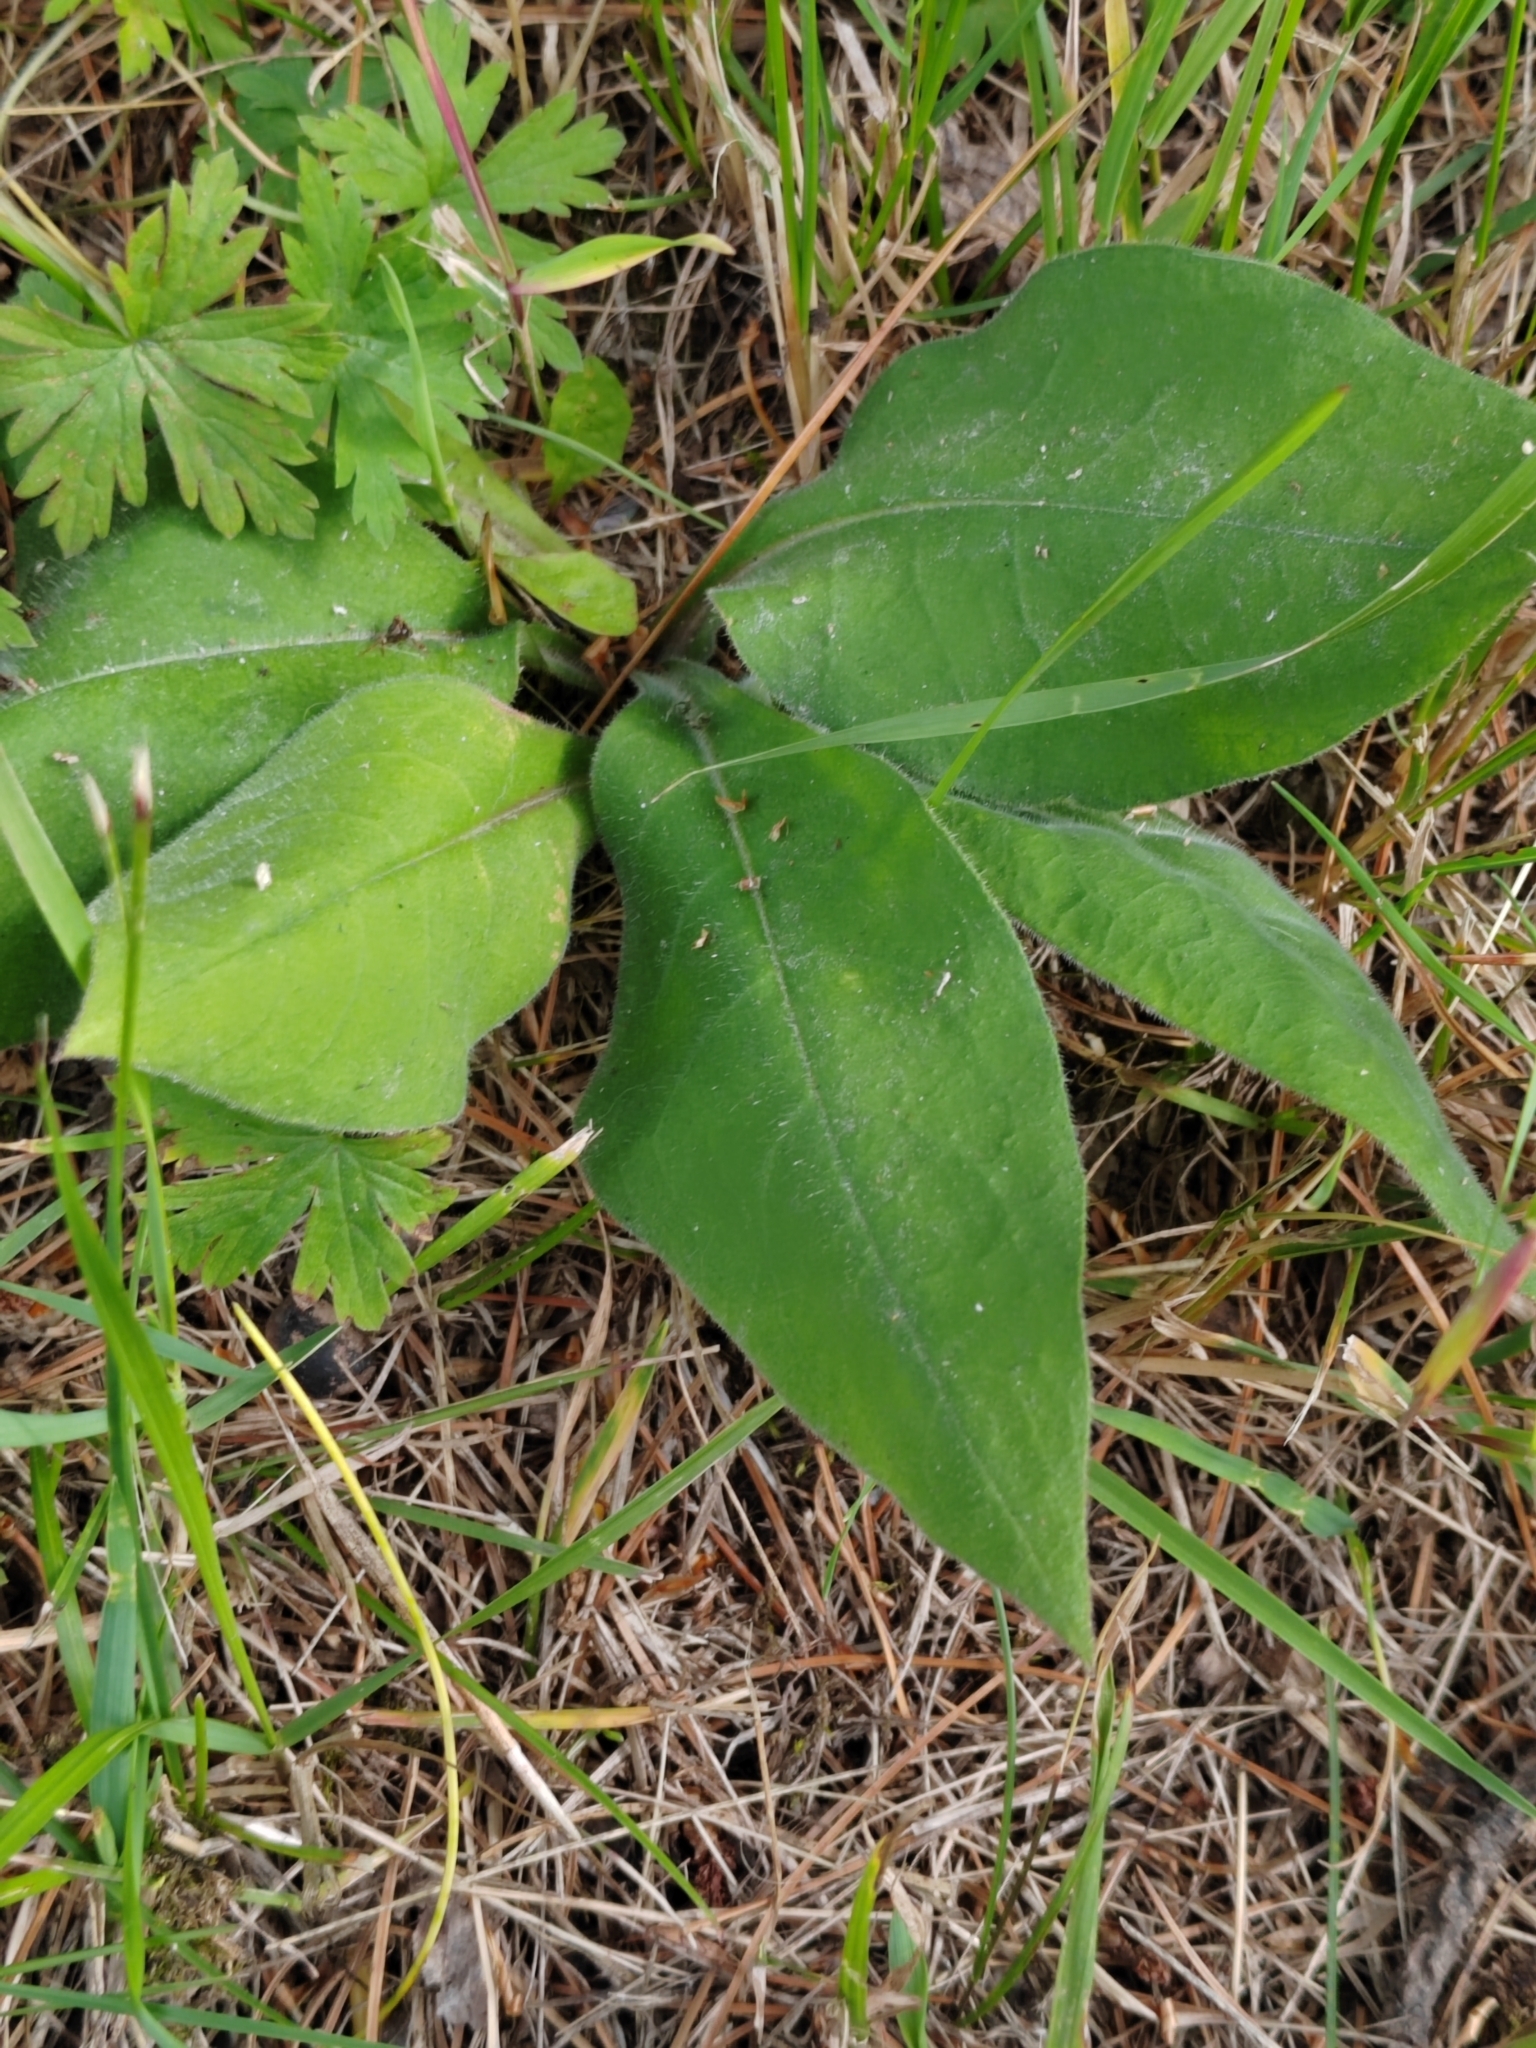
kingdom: Plantae
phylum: Tracheophyta
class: Magnoliopsida
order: Boraginales
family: Boraginaceae
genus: Pulmonaria
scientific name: Pulmonaria mollis
